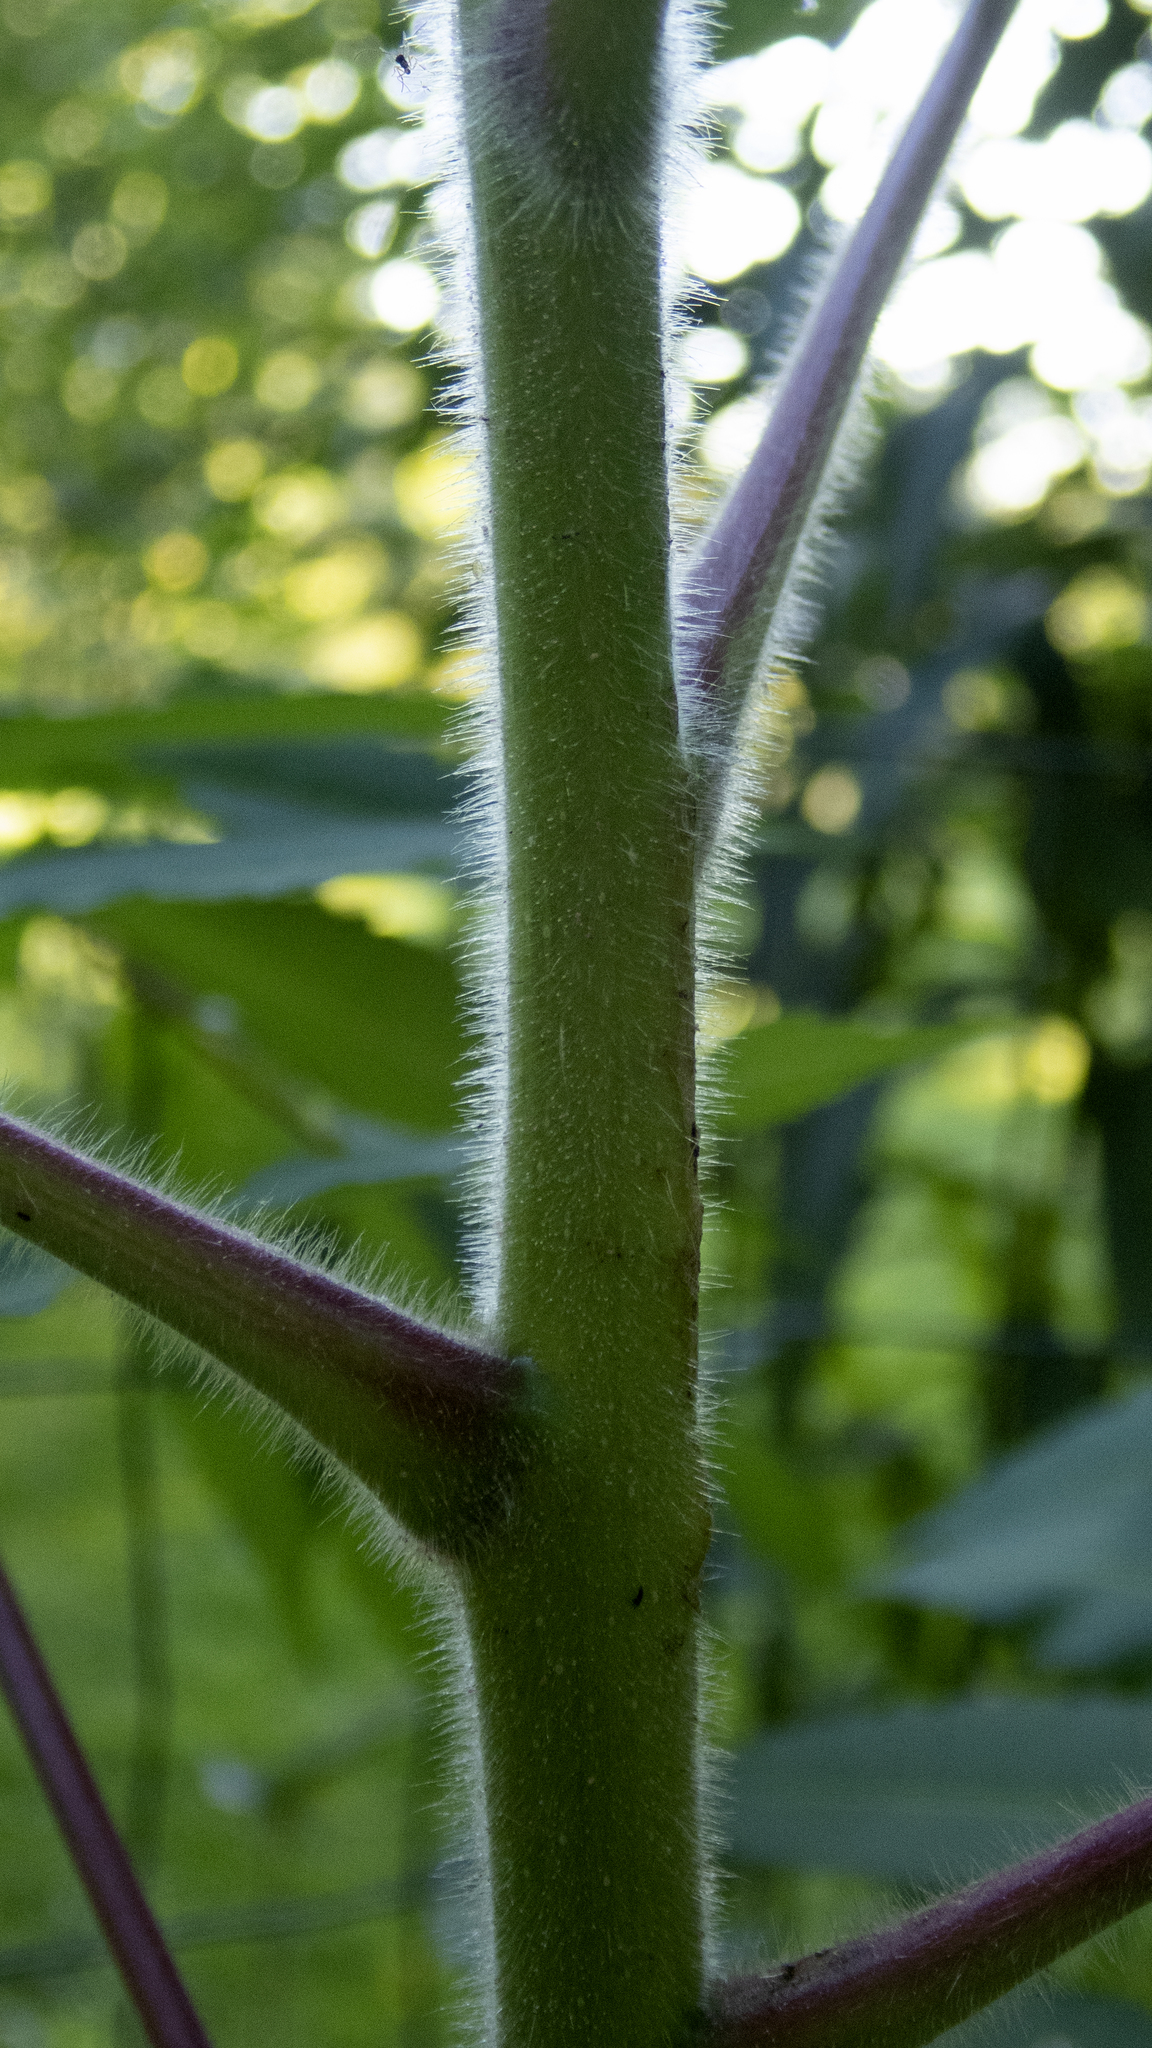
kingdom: Plantae
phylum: Tracheophyta
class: Magnoliopsida
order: Sapindales
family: Anacardiaceae
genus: Rhus
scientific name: Rhus typhina
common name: Staghorn sumac
